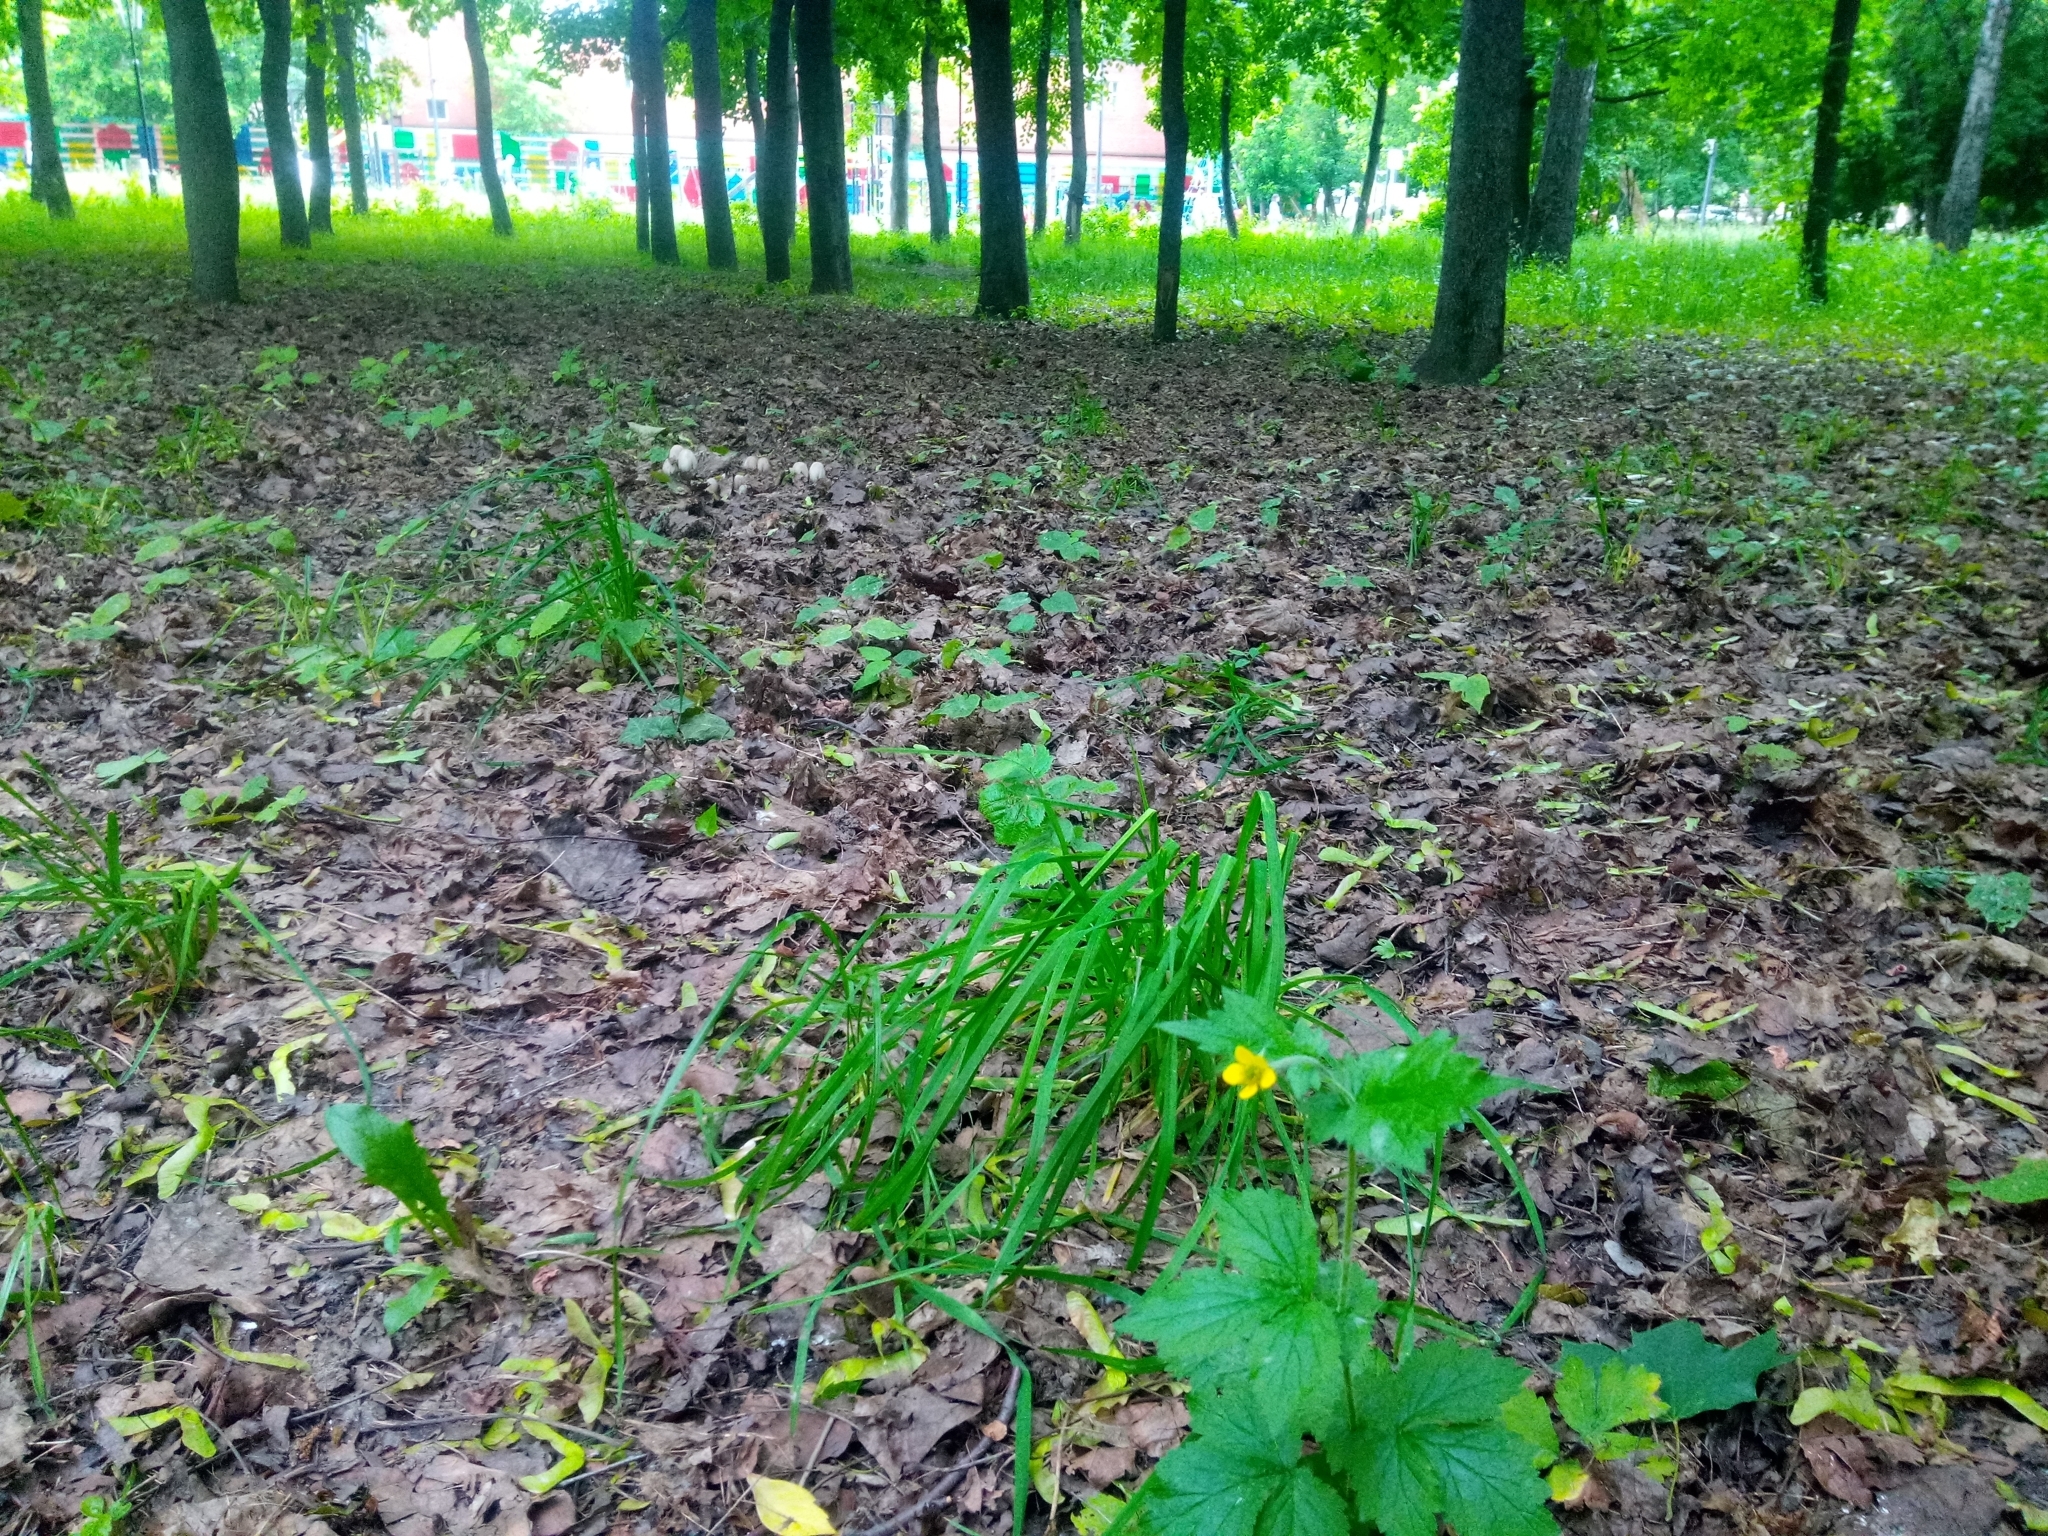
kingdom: Plantae
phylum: Tracheophyta
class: Magnoliopsida
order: Rosales
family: Rosaceae
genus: Geum
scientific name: Geum urbanum
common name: Wood avens
